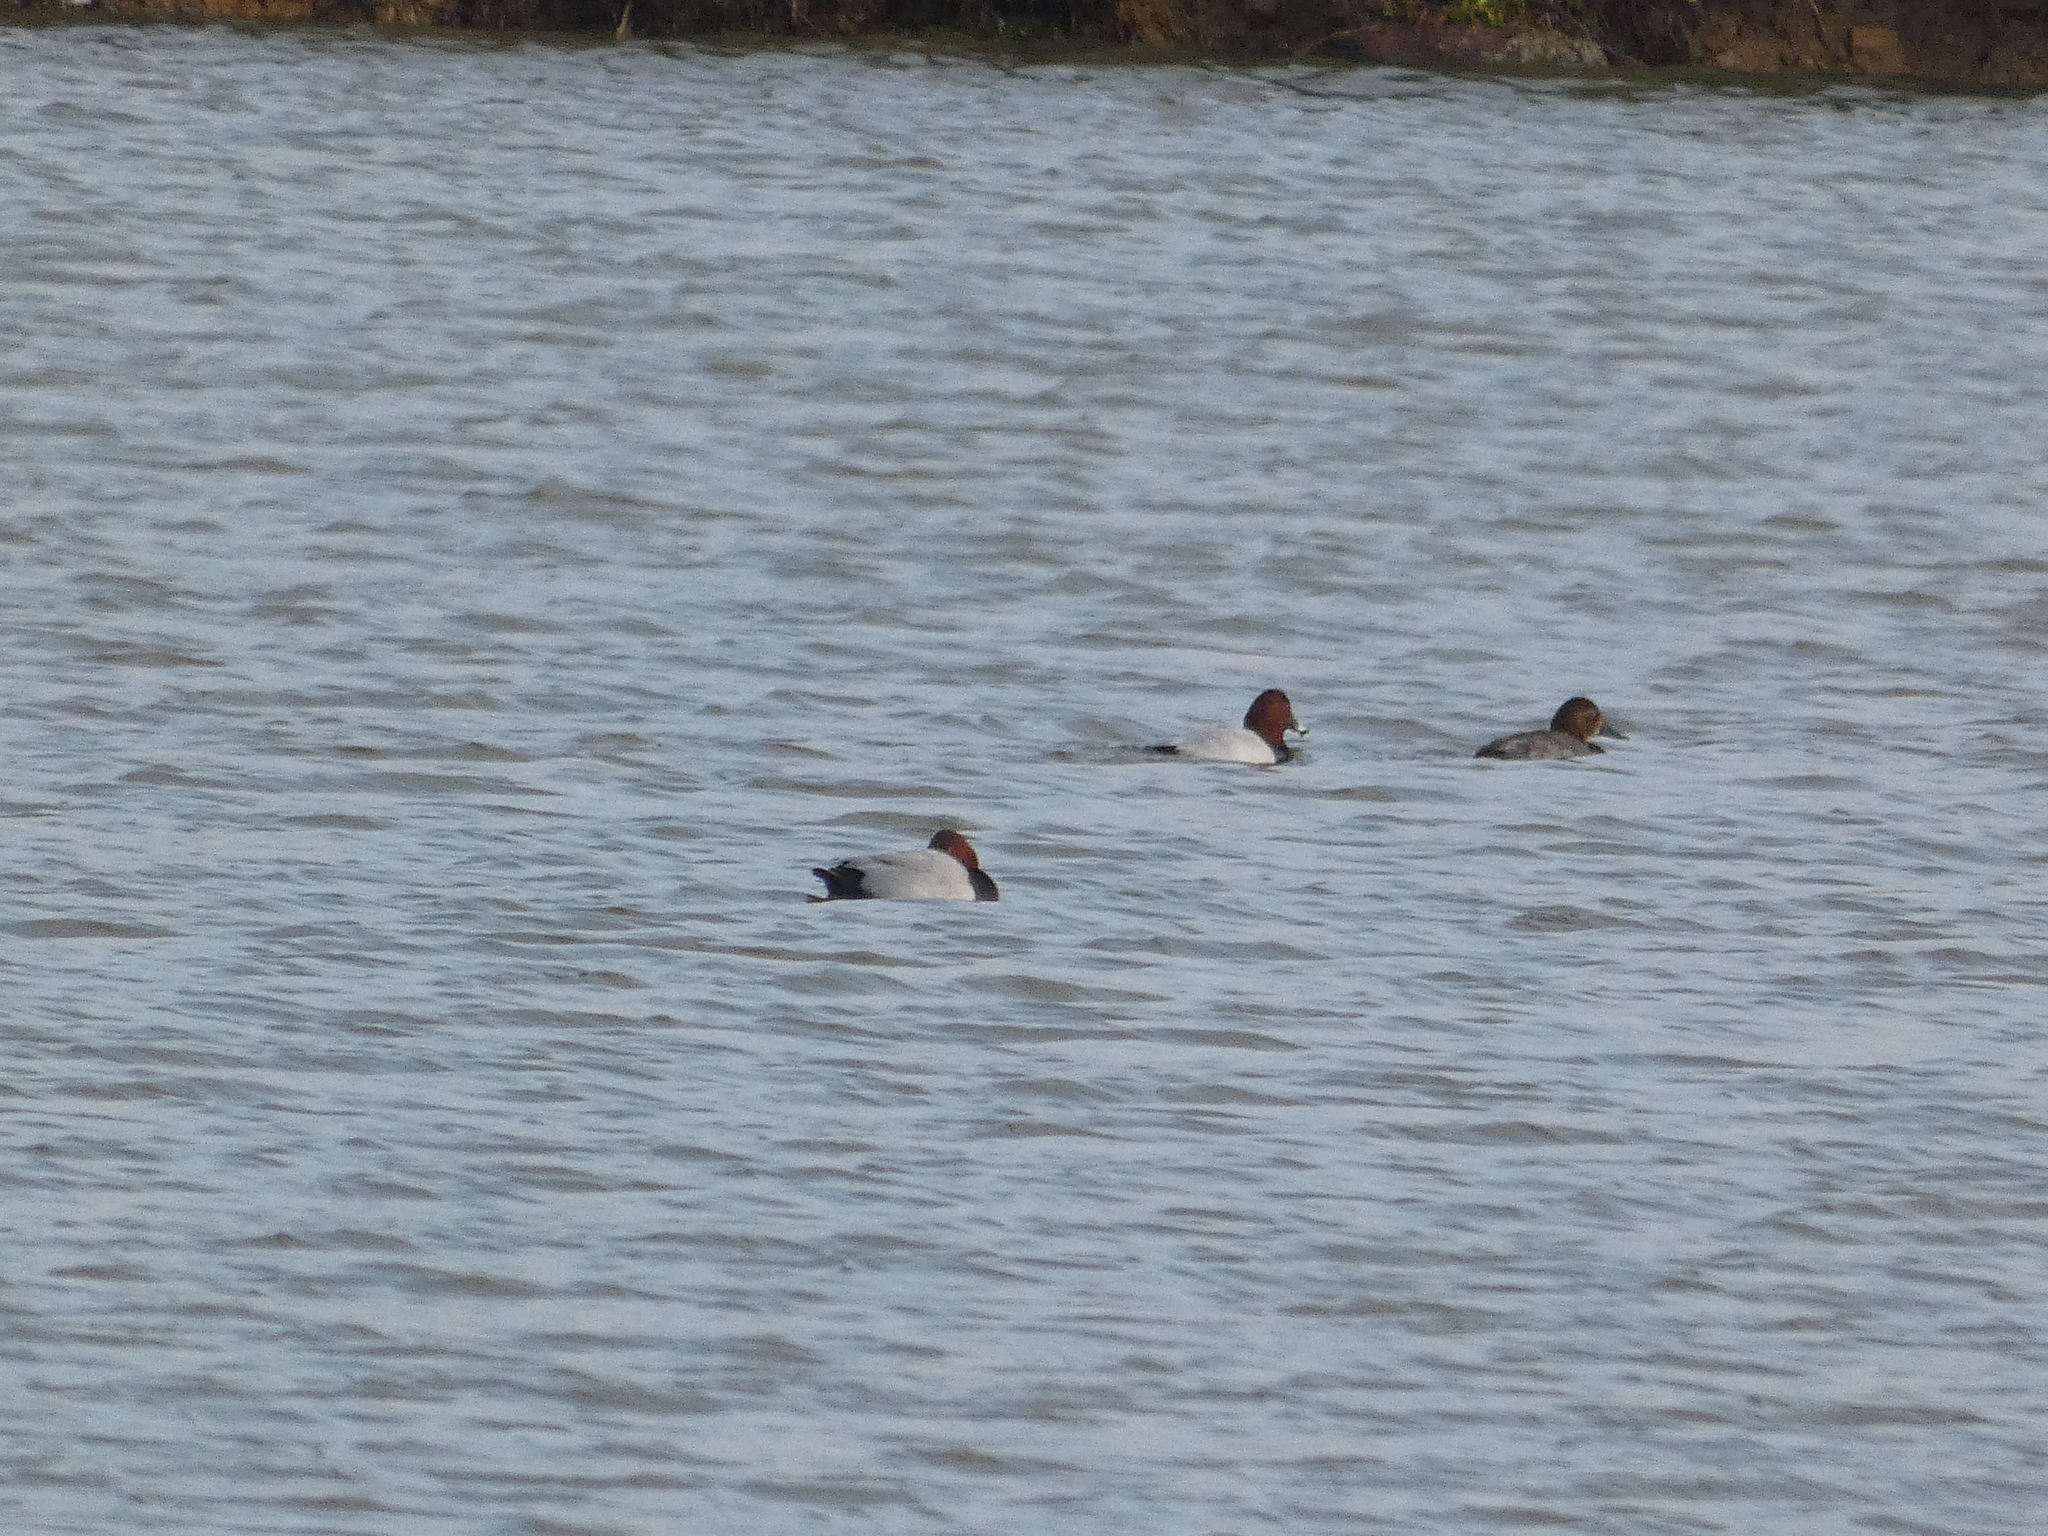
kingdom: Animalia
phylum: Chordata
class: Aves
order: Anseriformes
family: Anatidae
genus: Aythya
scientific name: Aythya ferina
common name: Common pochard
